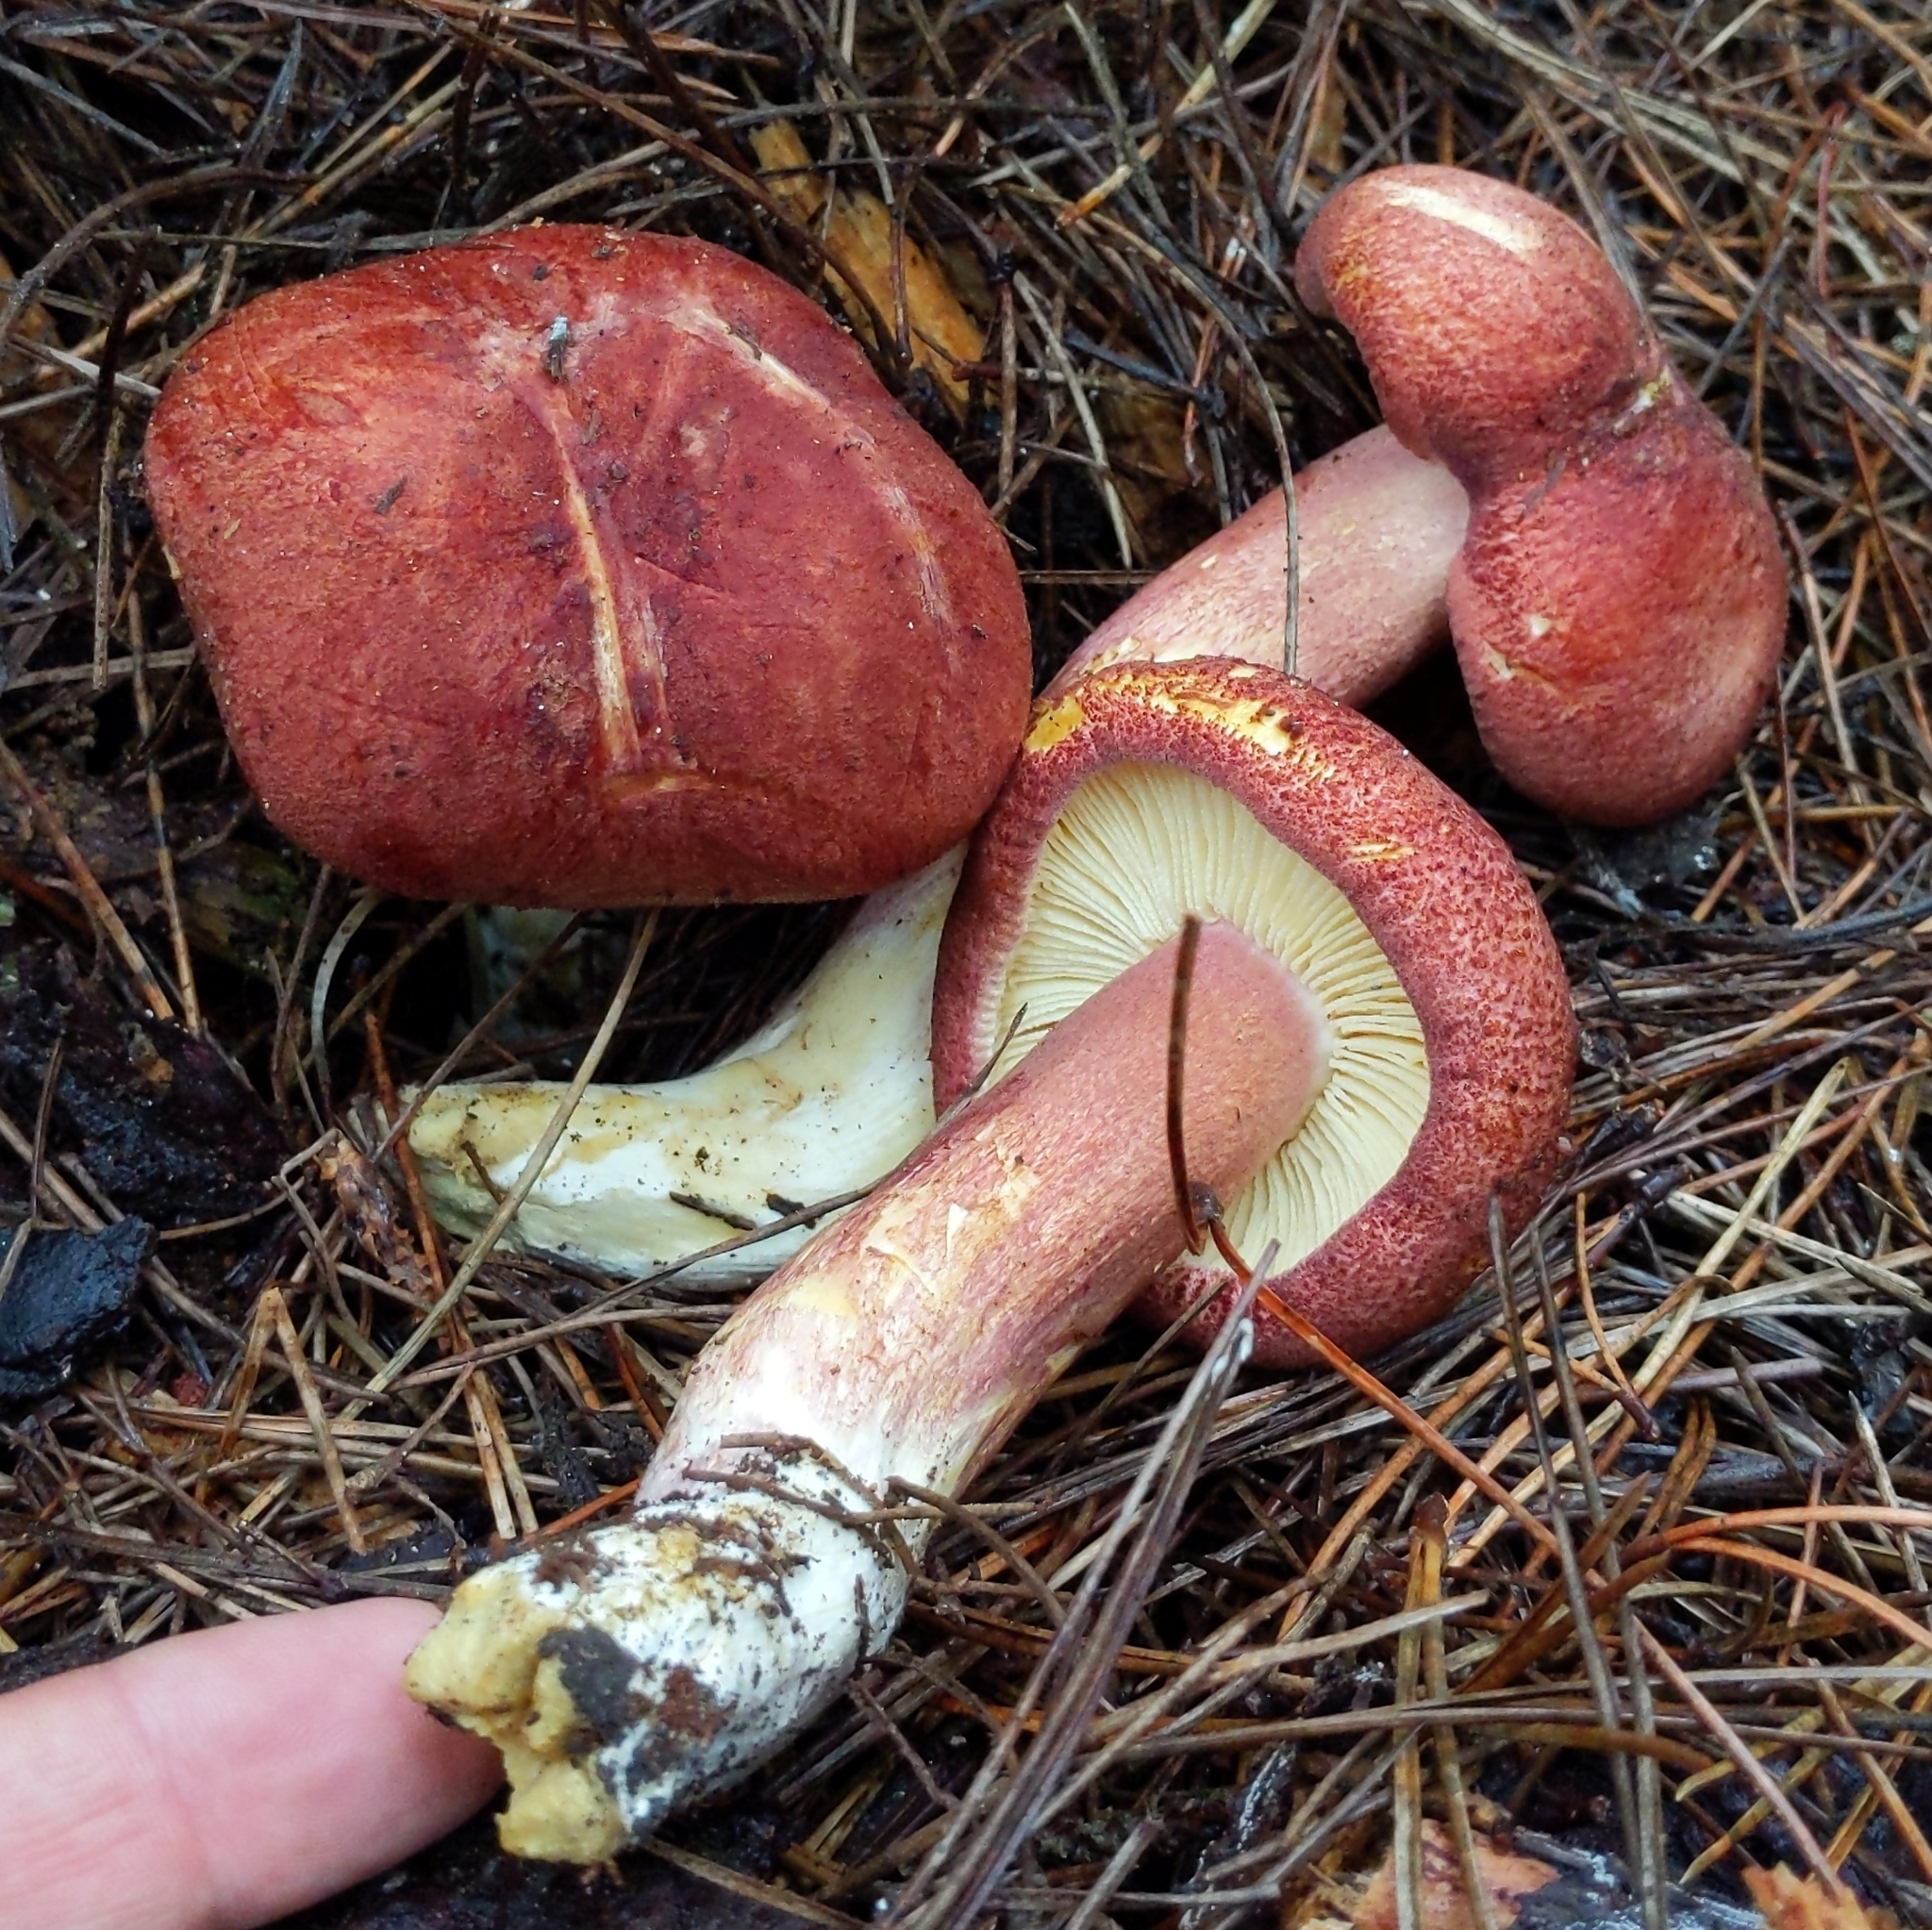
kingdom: Fungi
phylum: Basidiomycota
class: Agaricomycetes
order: Agaricales
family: Tricholomataceae
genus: Tricholomopsis
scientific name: Tricholomopsis rutilans
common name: Plums and custard
